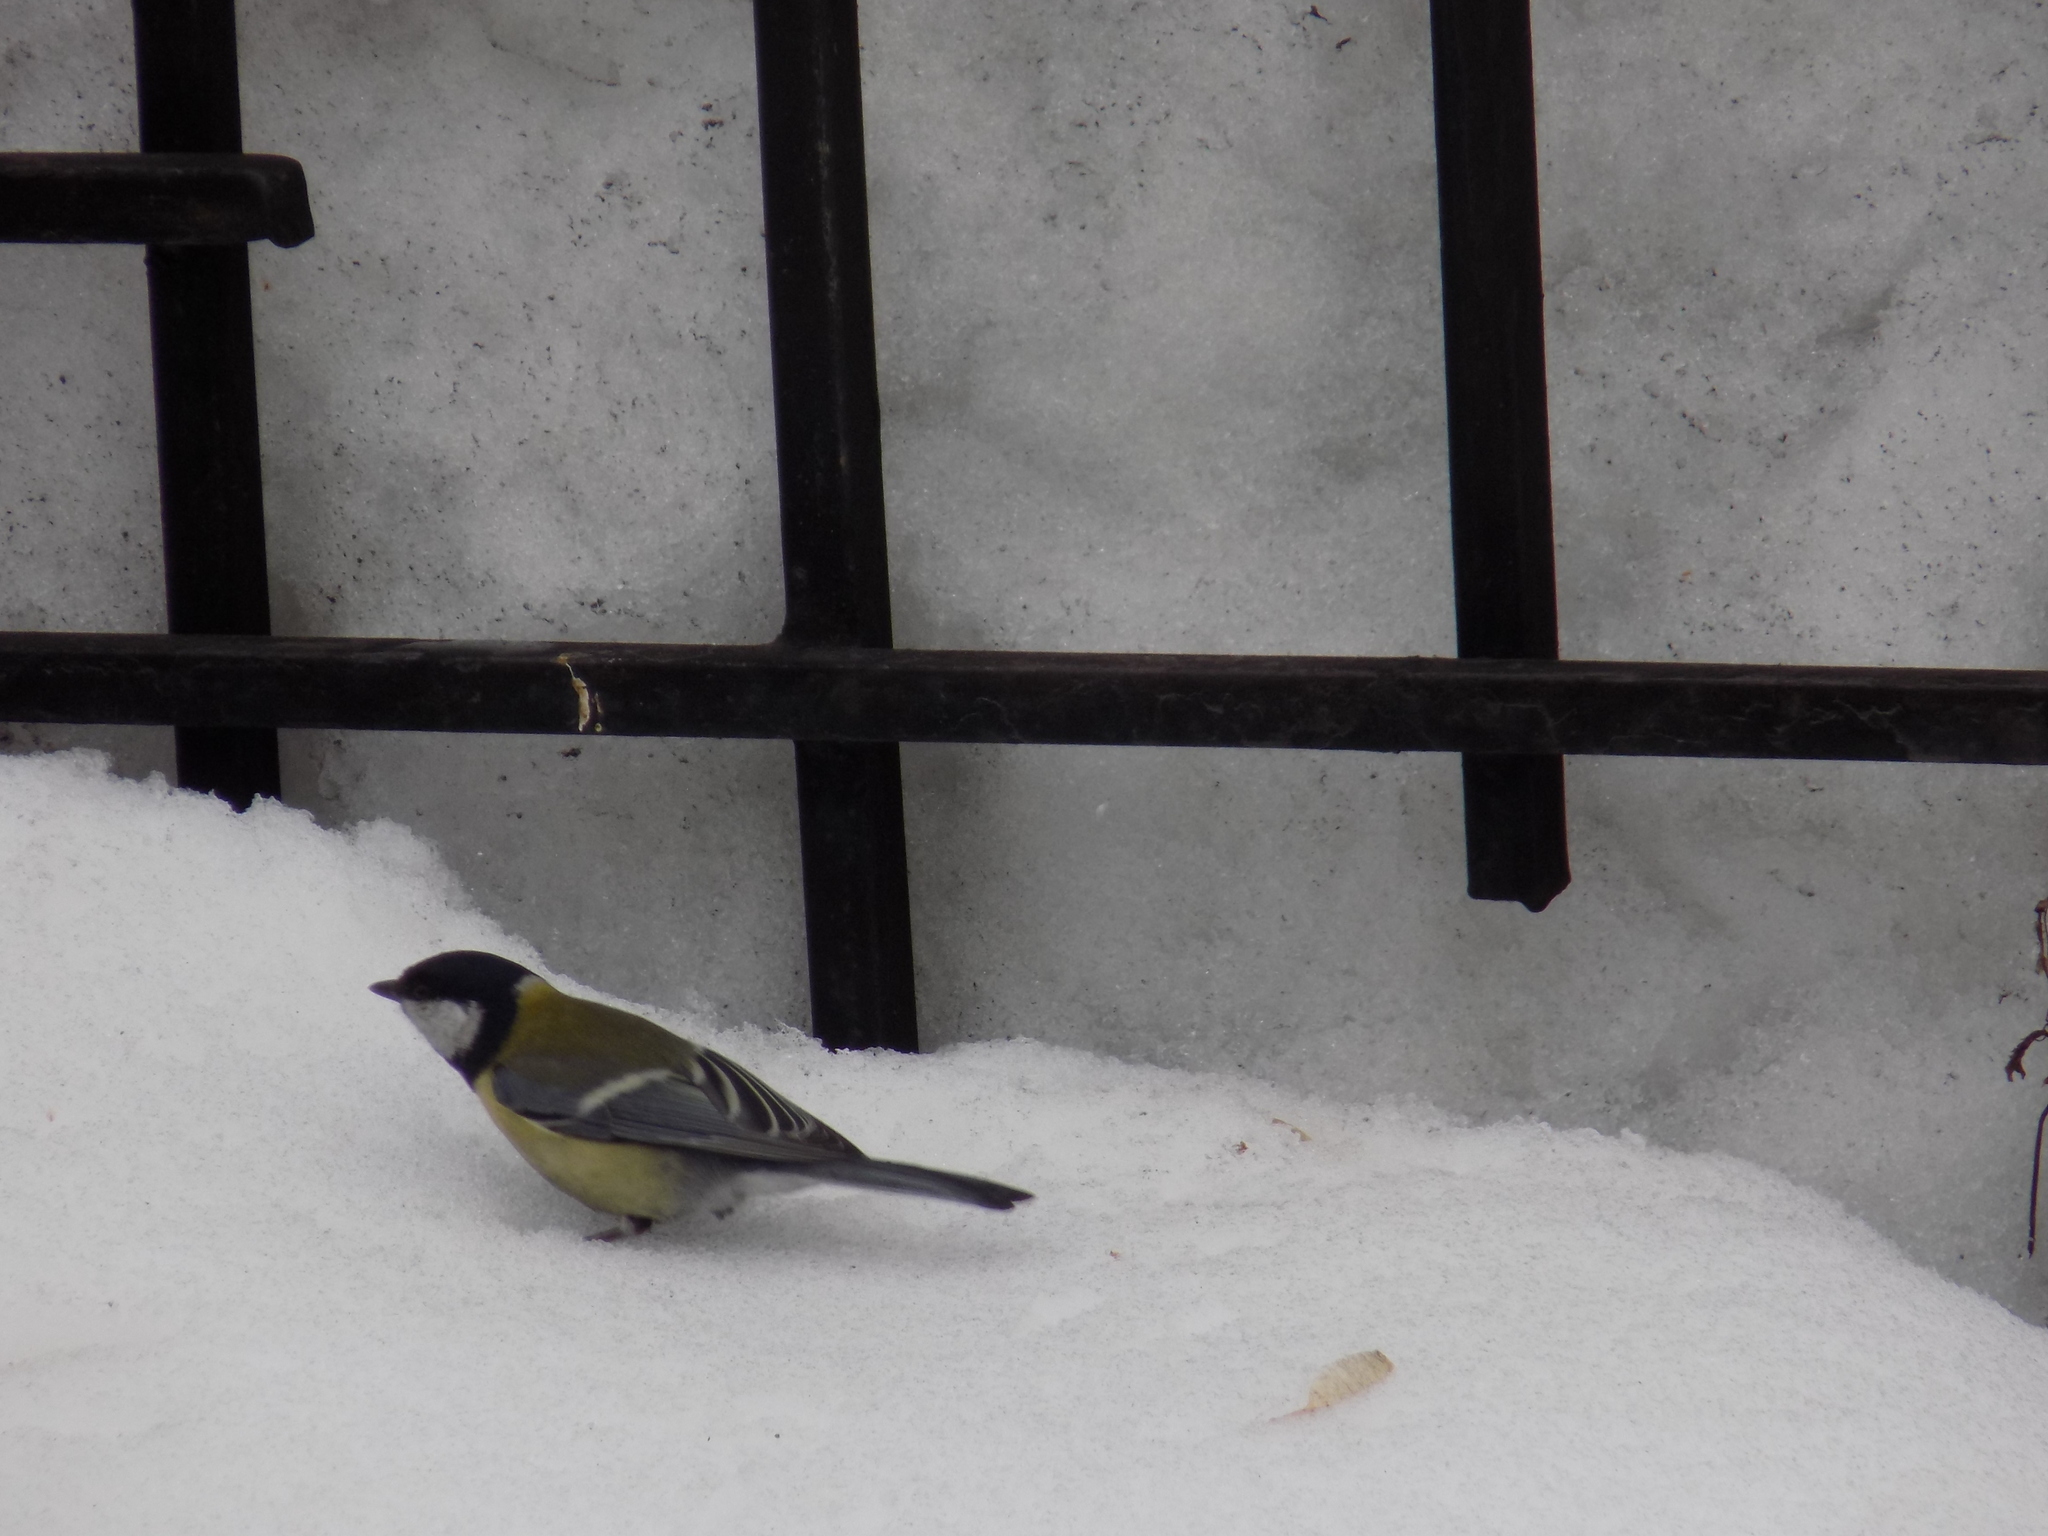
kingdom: Animalia
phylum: Chordata
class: Aves
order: Passeriformes
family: Paridae
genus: Parus
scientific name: Parus major
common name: Great tit
